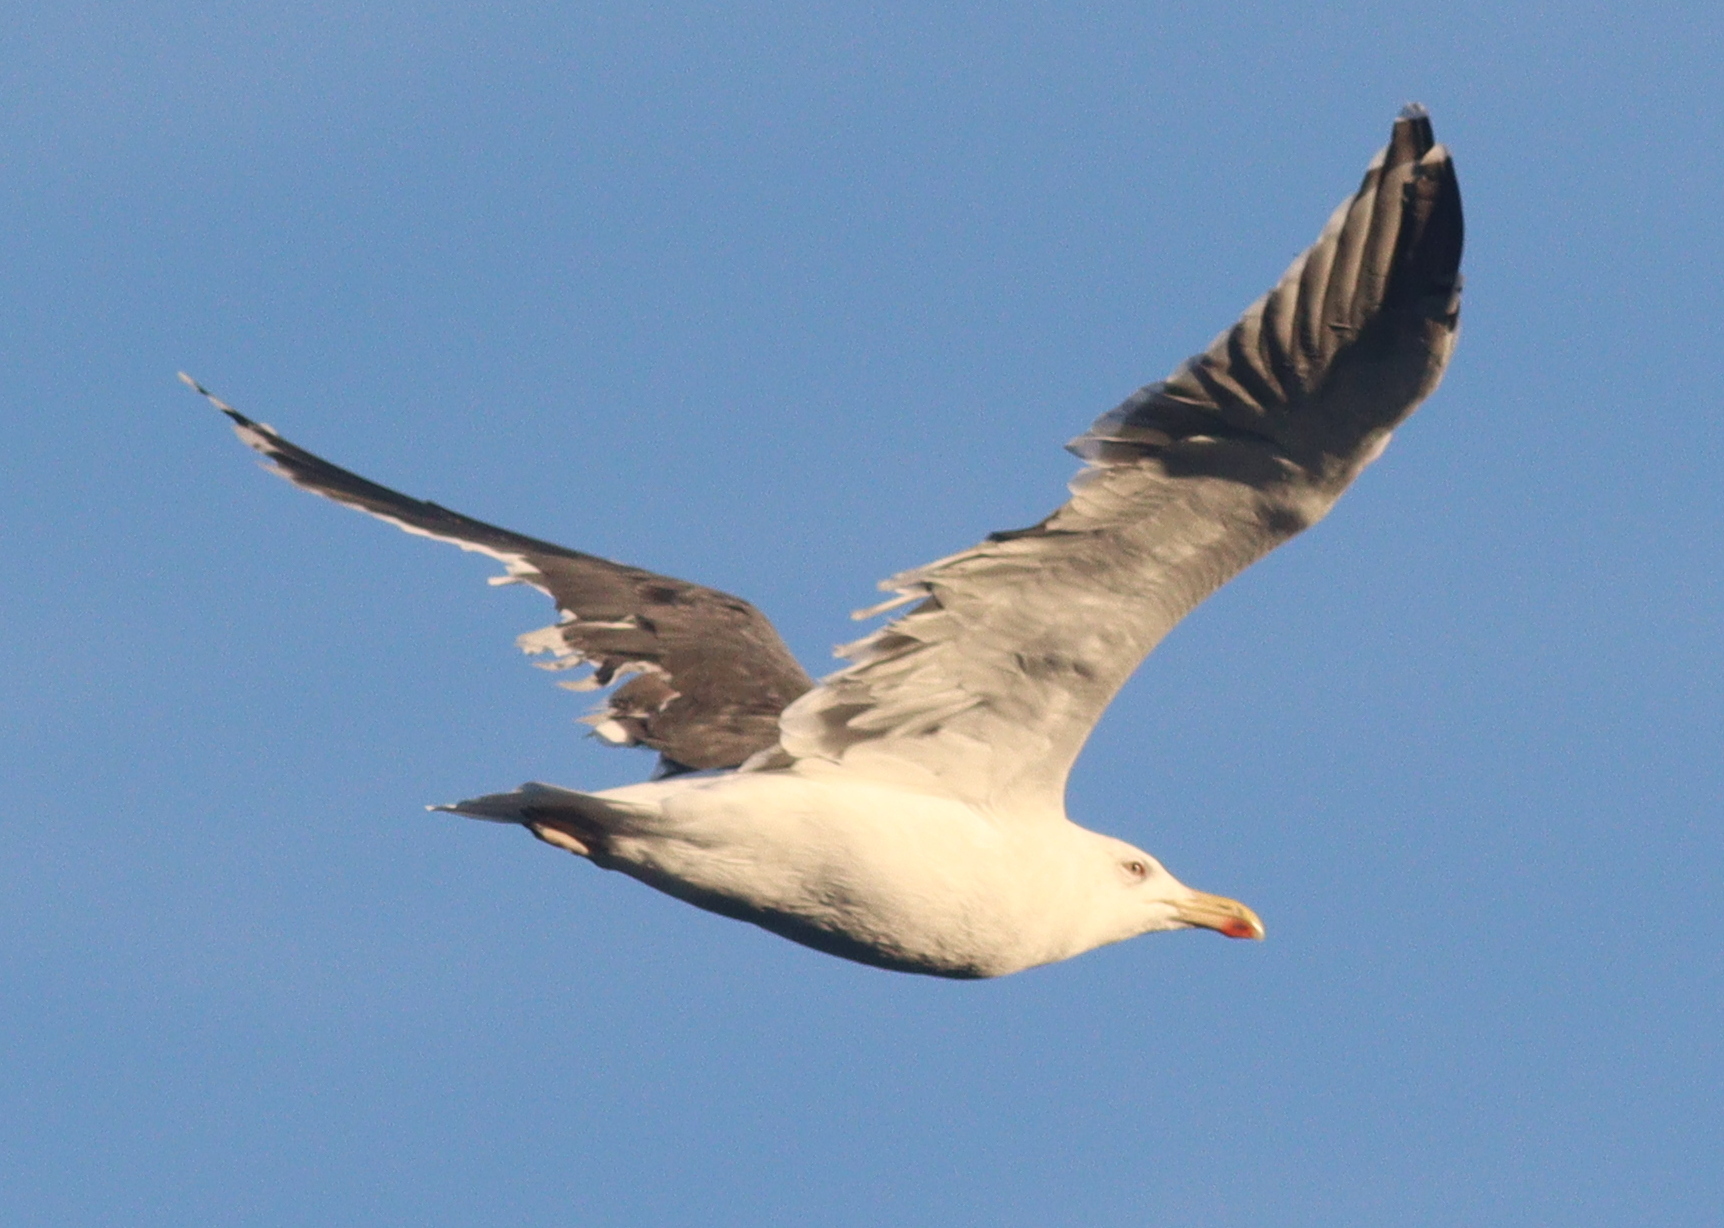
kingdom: Animalia
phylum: Chordata
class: Aves
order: Charadriiformes
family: Laridae
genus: Larus
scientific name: Larus marinus
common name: Great black-backed gull
